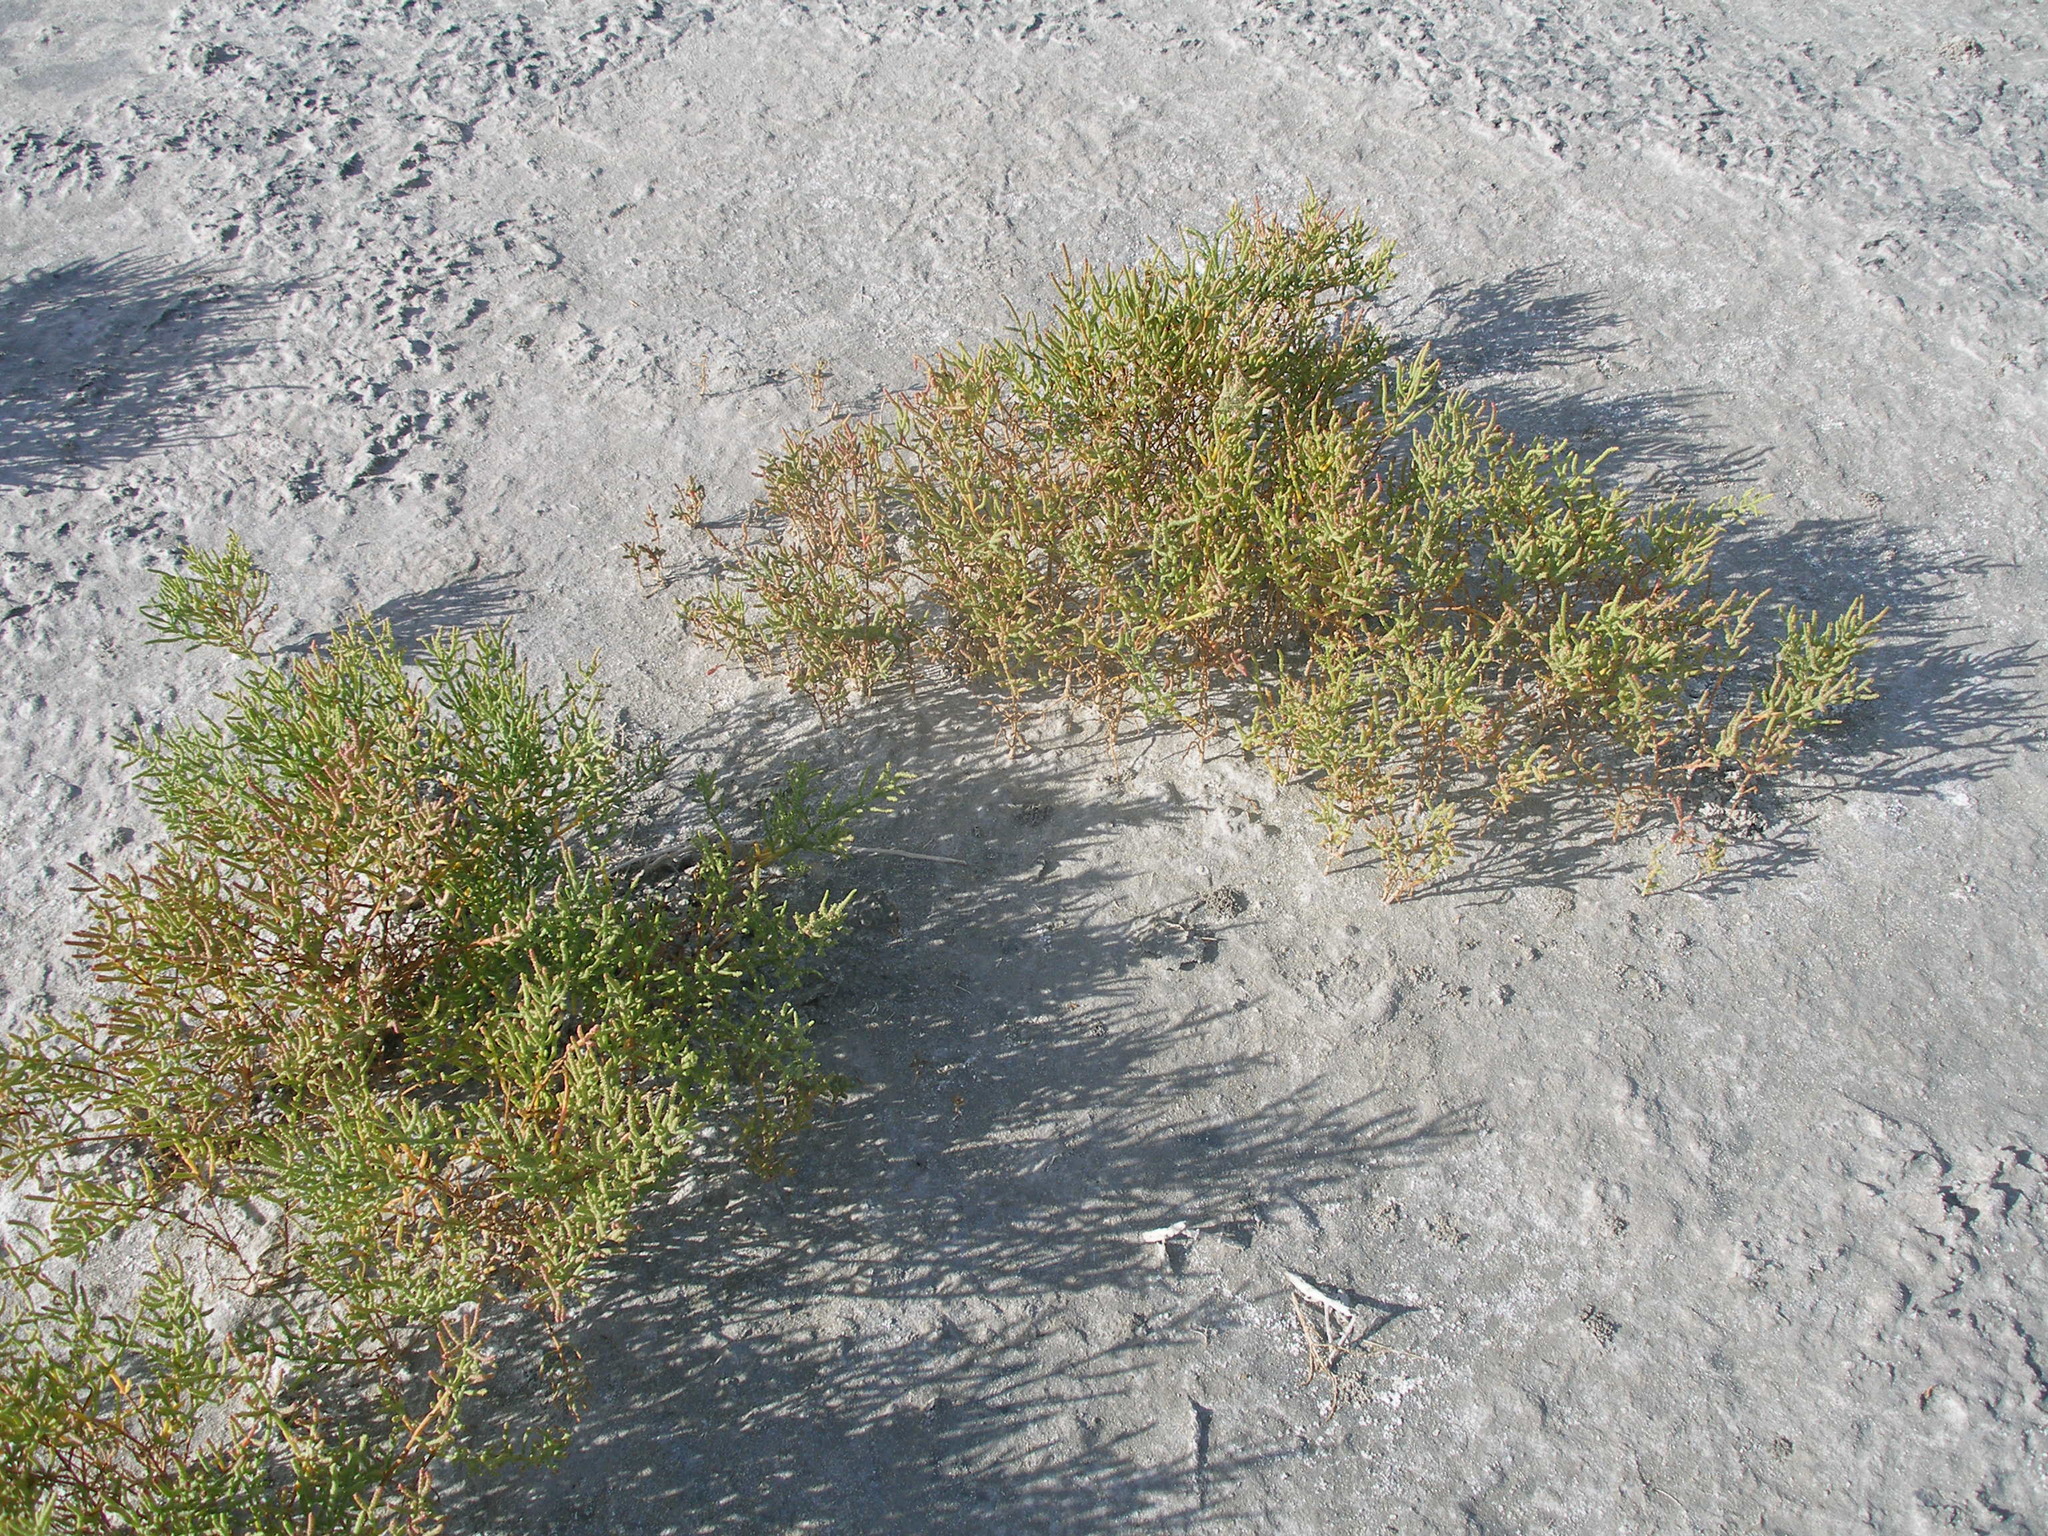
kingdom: Plantae
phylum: Tracheophyta
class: Magnoliopsida
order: Caryophyllales
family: Amaranthaceae
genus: Salicornia
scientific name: Salicornia perennans
